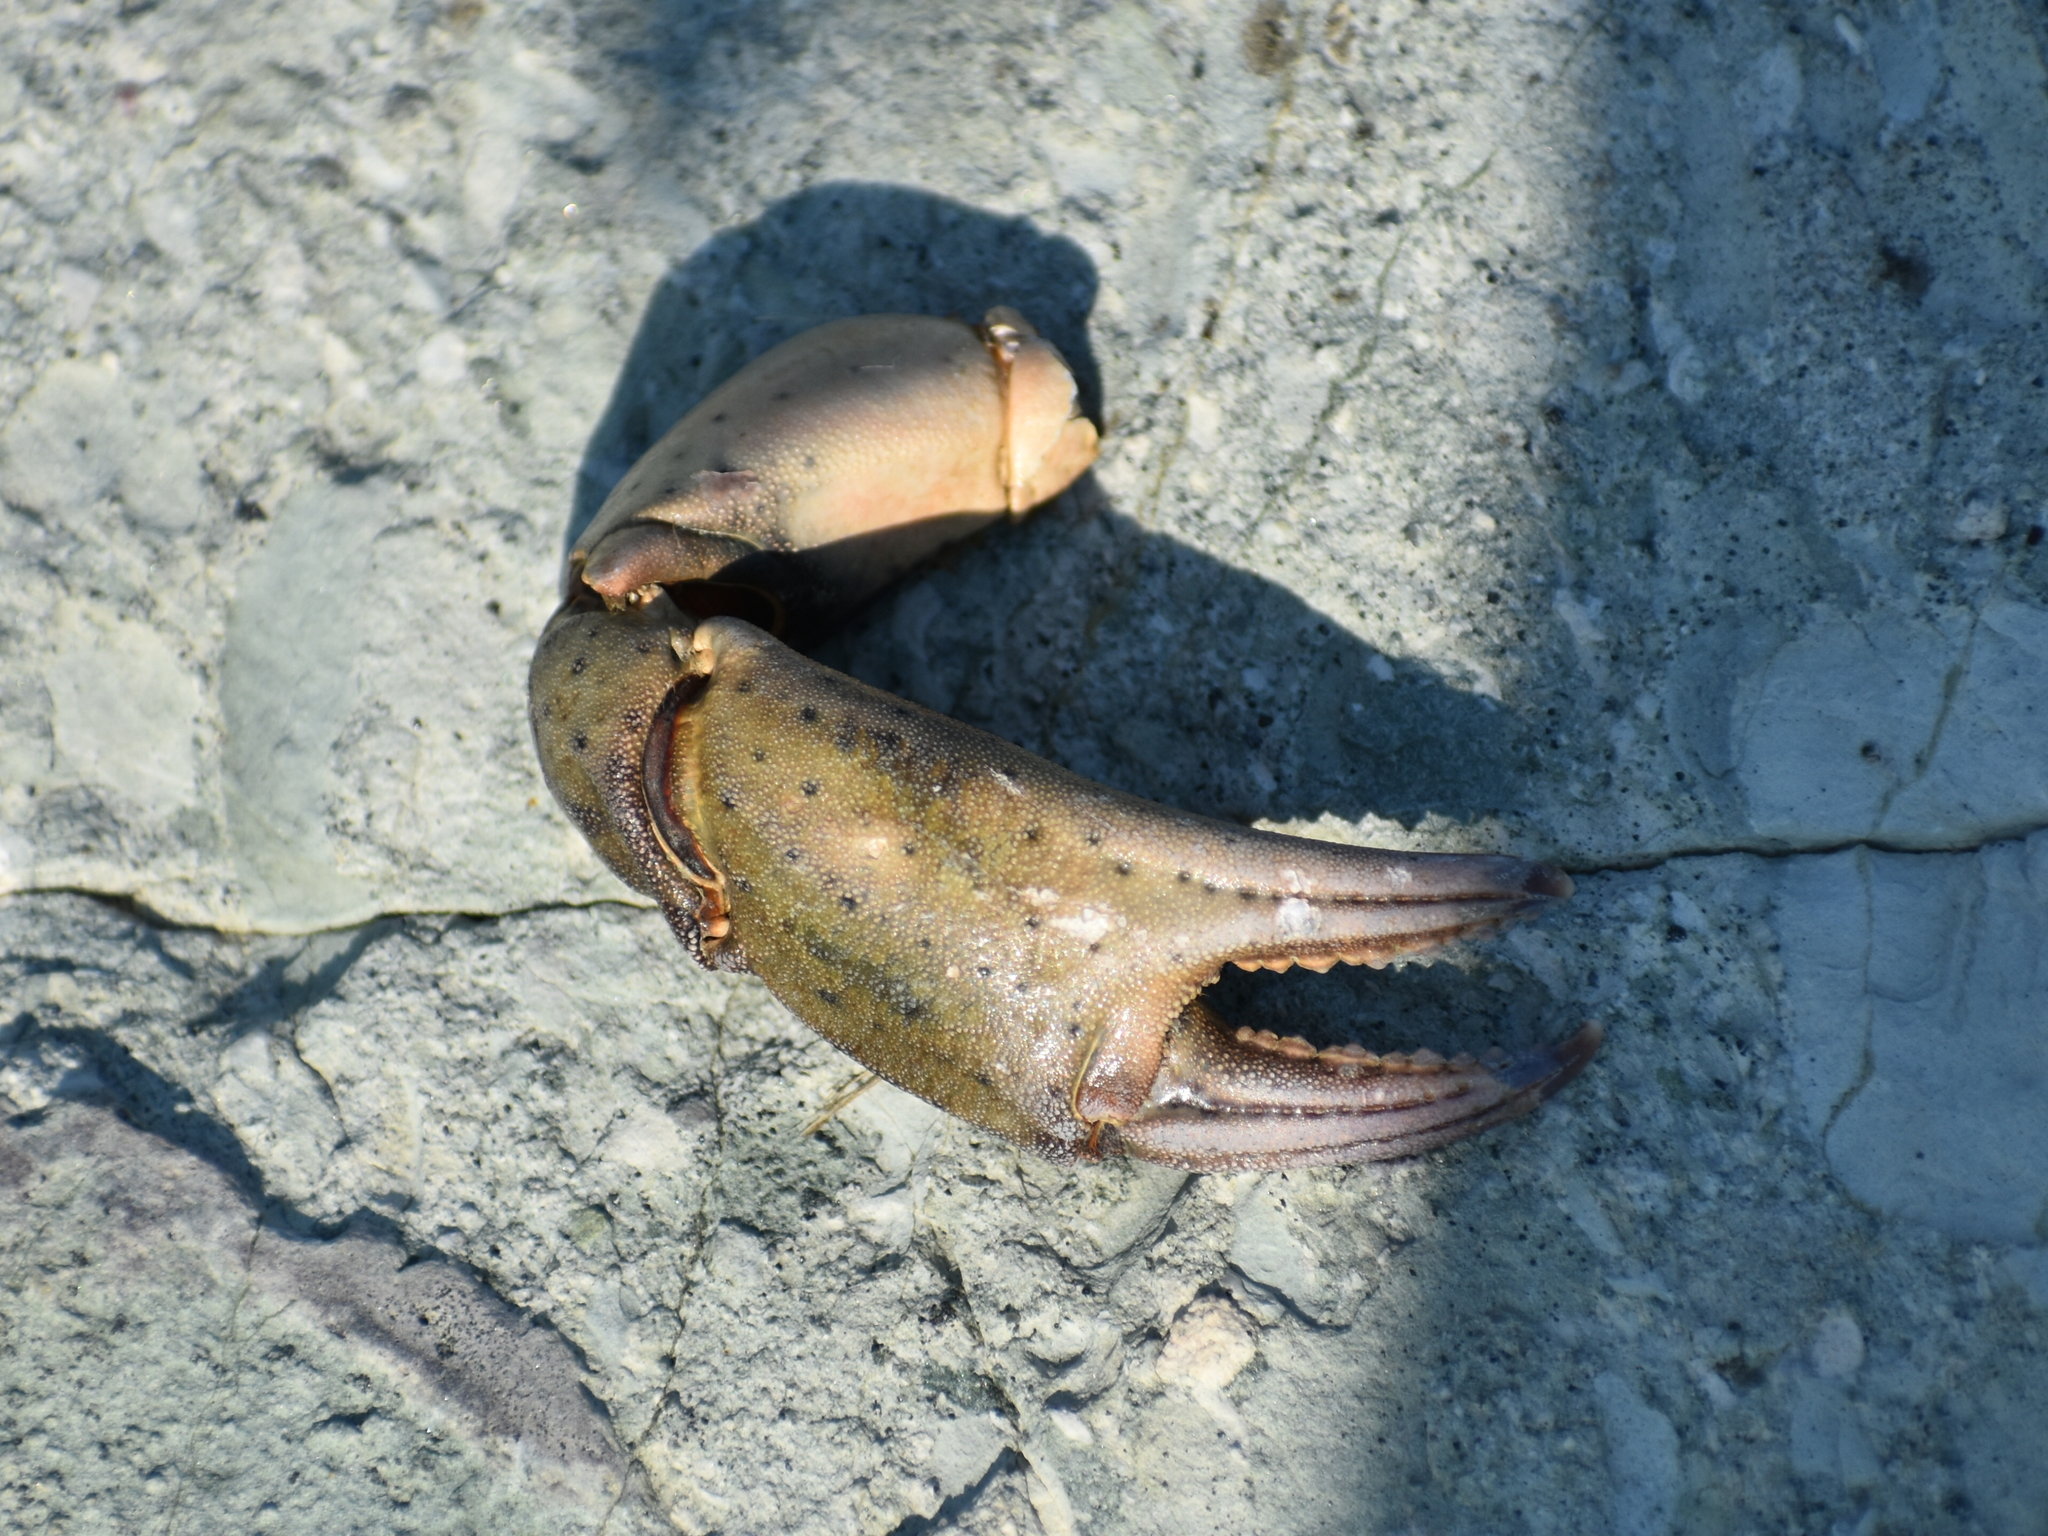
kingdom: Animalia
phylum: Arthropoda
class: Malacostraca
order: Decapoda
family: Carcinidae
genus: Carcinus
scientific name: Carcinus maenas
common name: European green crab
